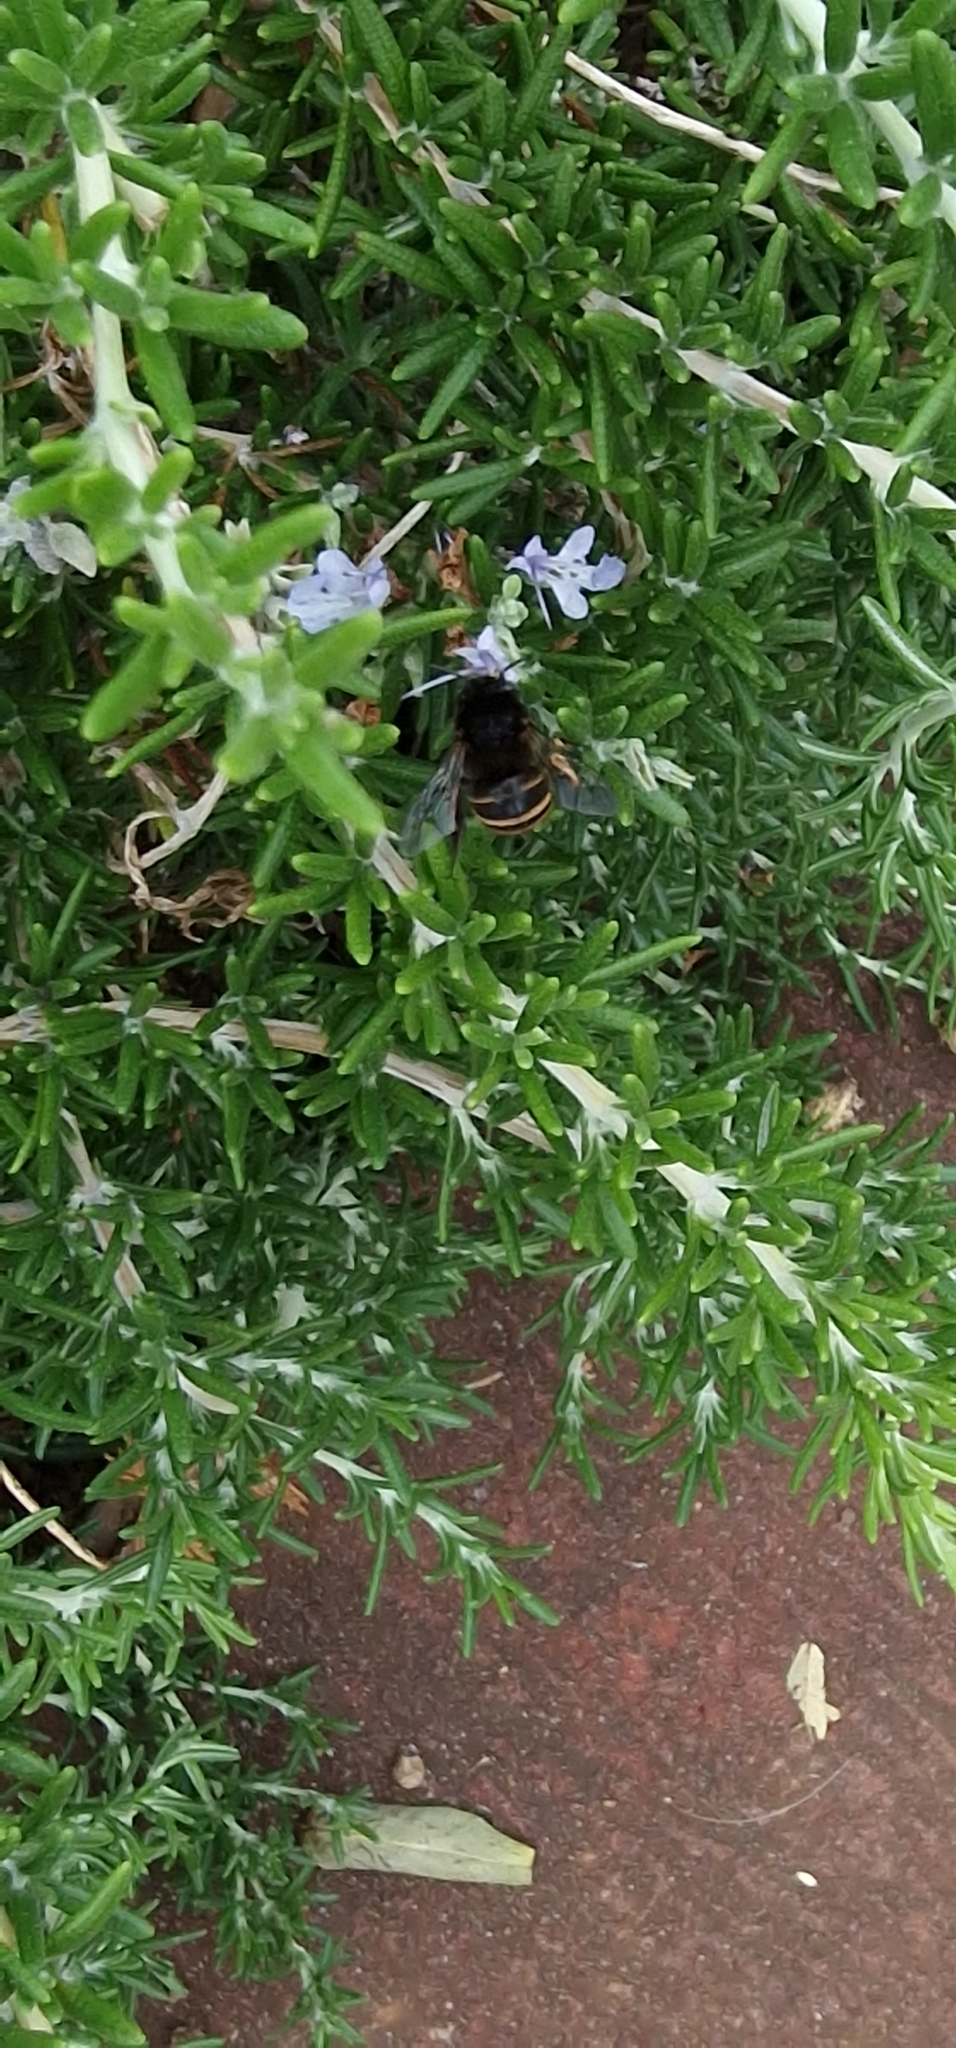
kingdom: Animalia
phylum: Arthropoda
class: Insecta
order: Hymenoptera
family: Apidae
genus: Amegilla
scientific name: Amegilla quadrifasciata
